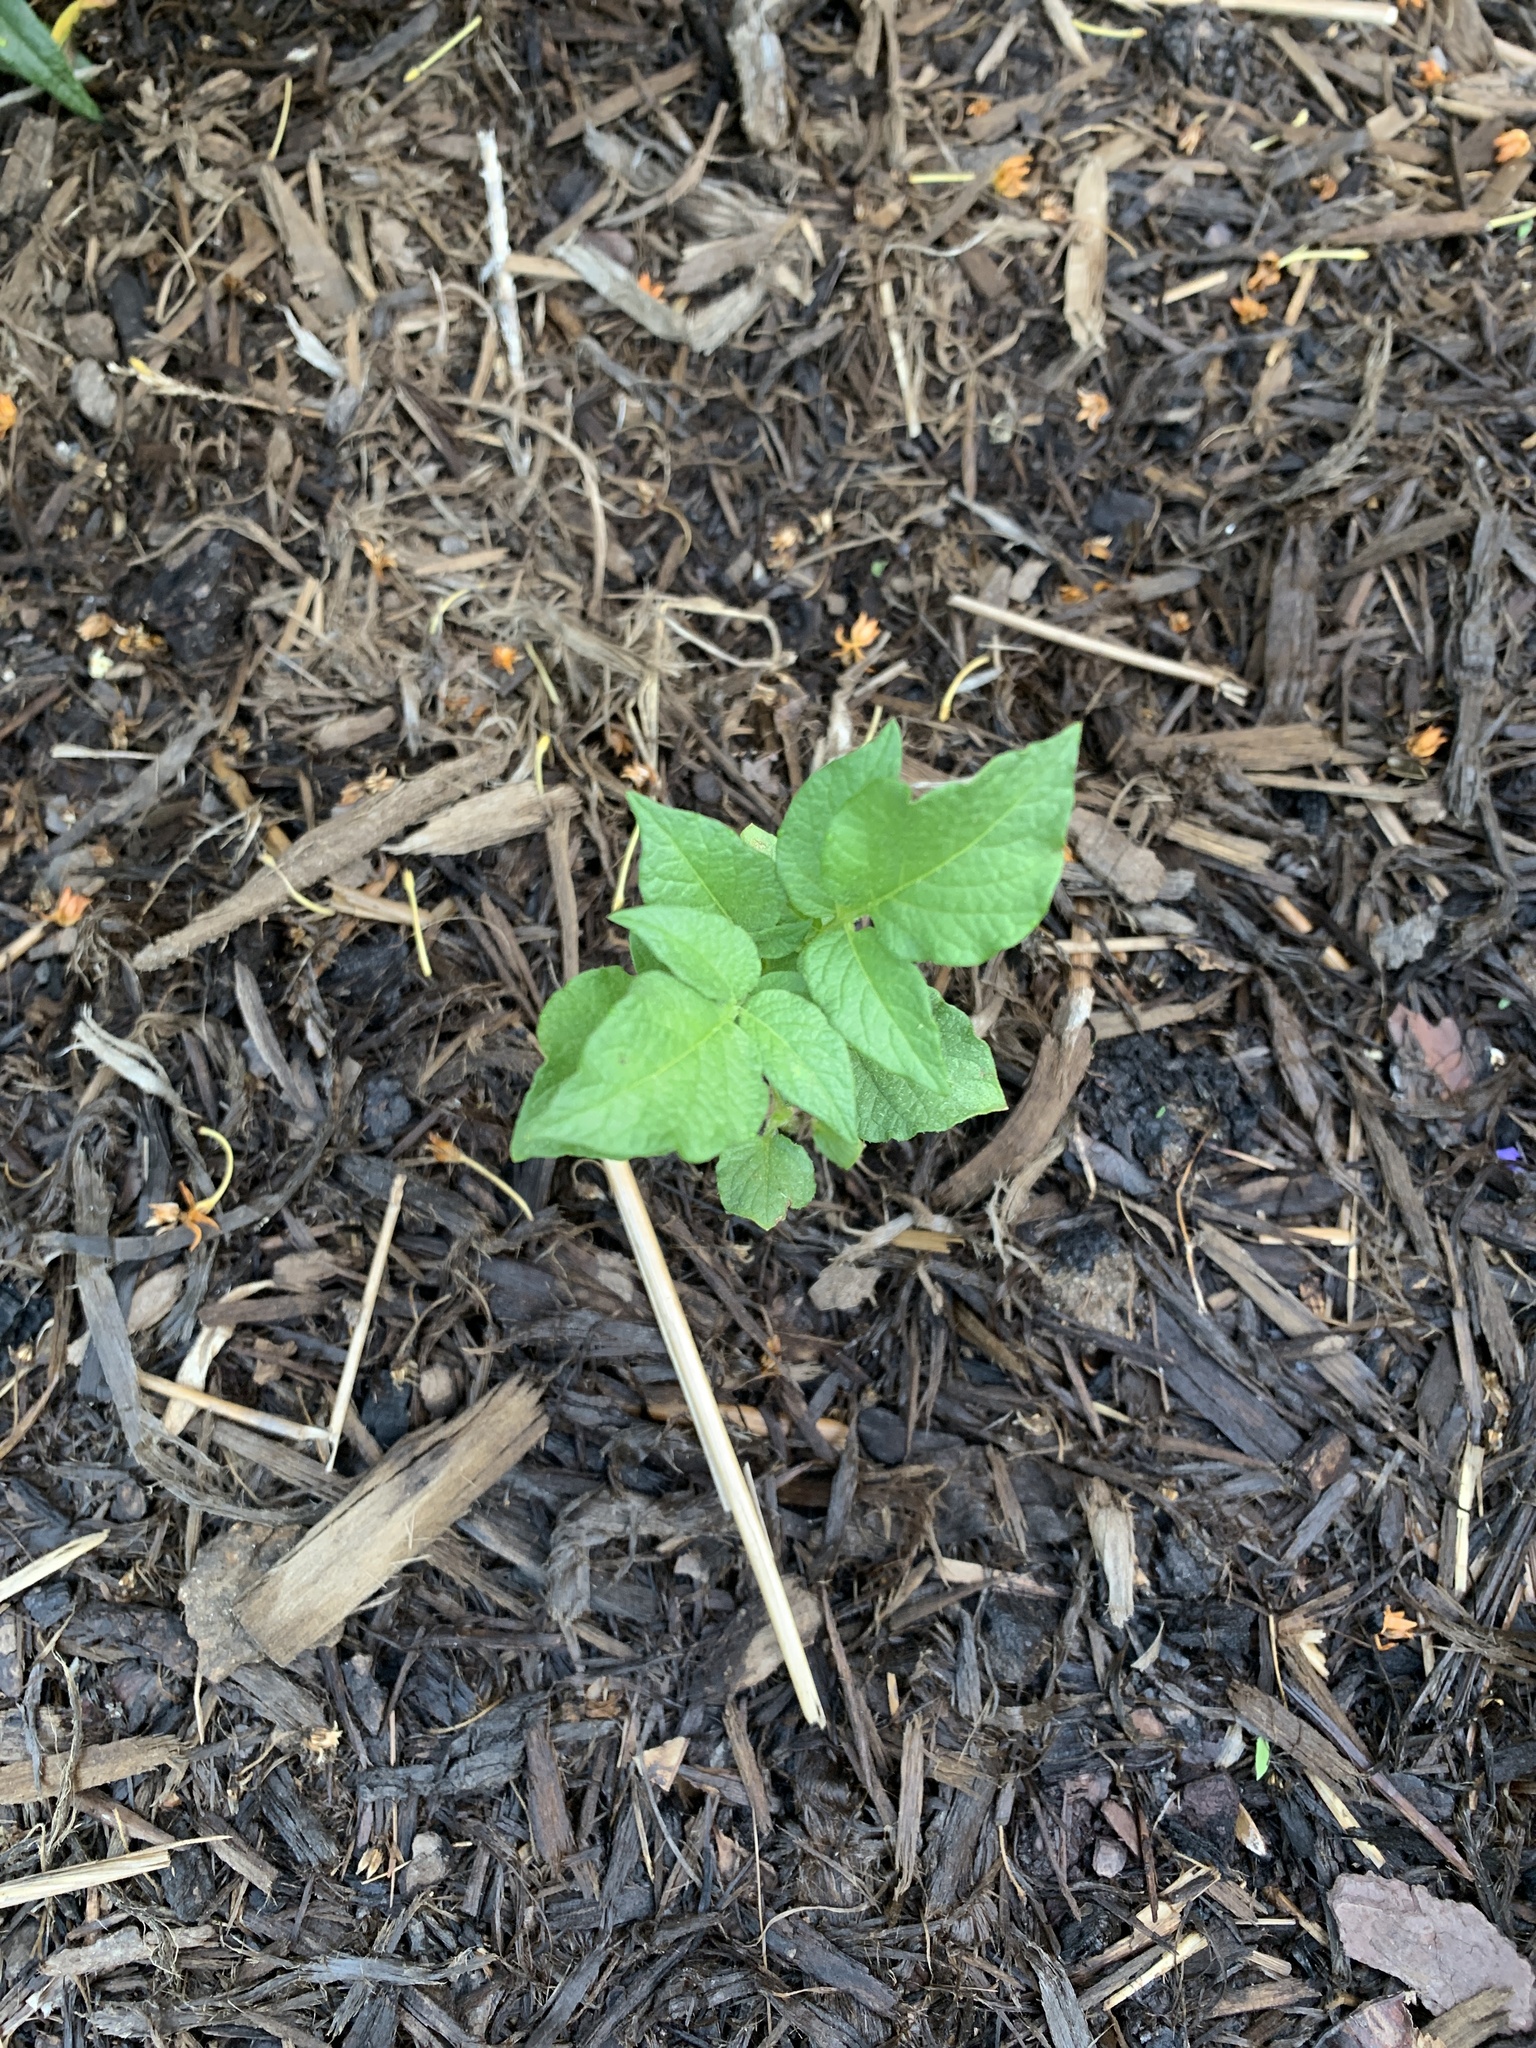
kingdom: Plantae
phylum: Tracheophyta
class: Magnoliopsida
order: Solanales
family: Solanaceae
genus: Solanum
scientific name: Solanum tuberosum
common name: Potato
